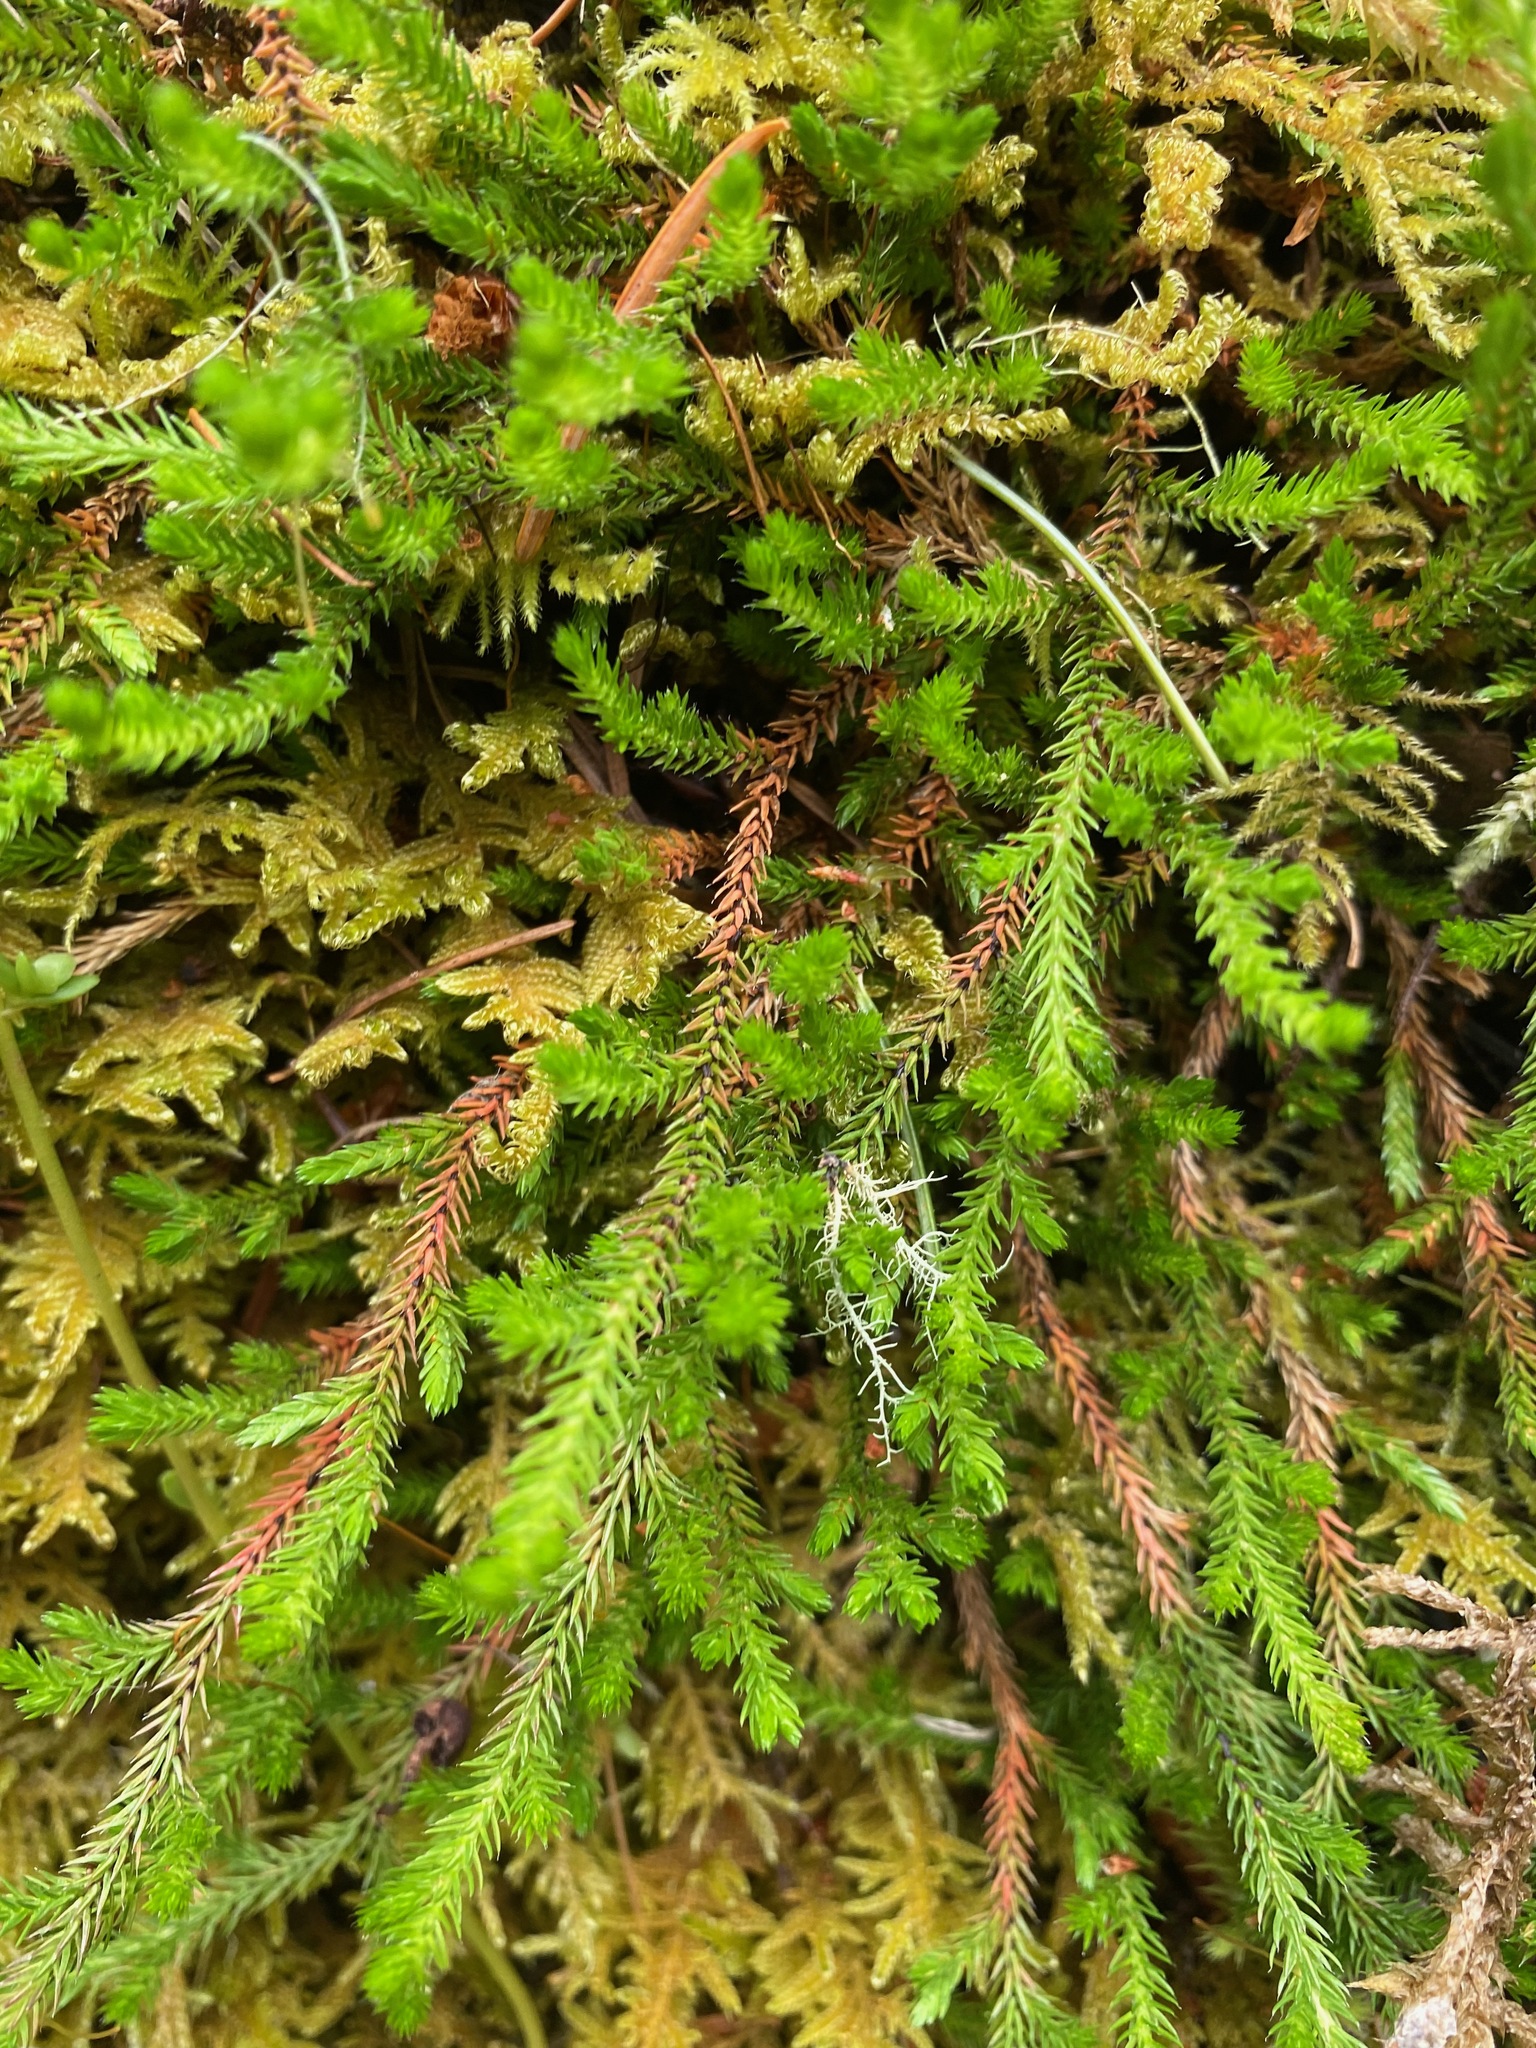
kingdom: Plantae
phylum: Tracheophyta
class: Lycopodiopsida
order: Selaginellales
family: Selaginellaceae
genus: Selaginella
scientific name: Selaginella wallacei
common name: Wallace's selaginella
